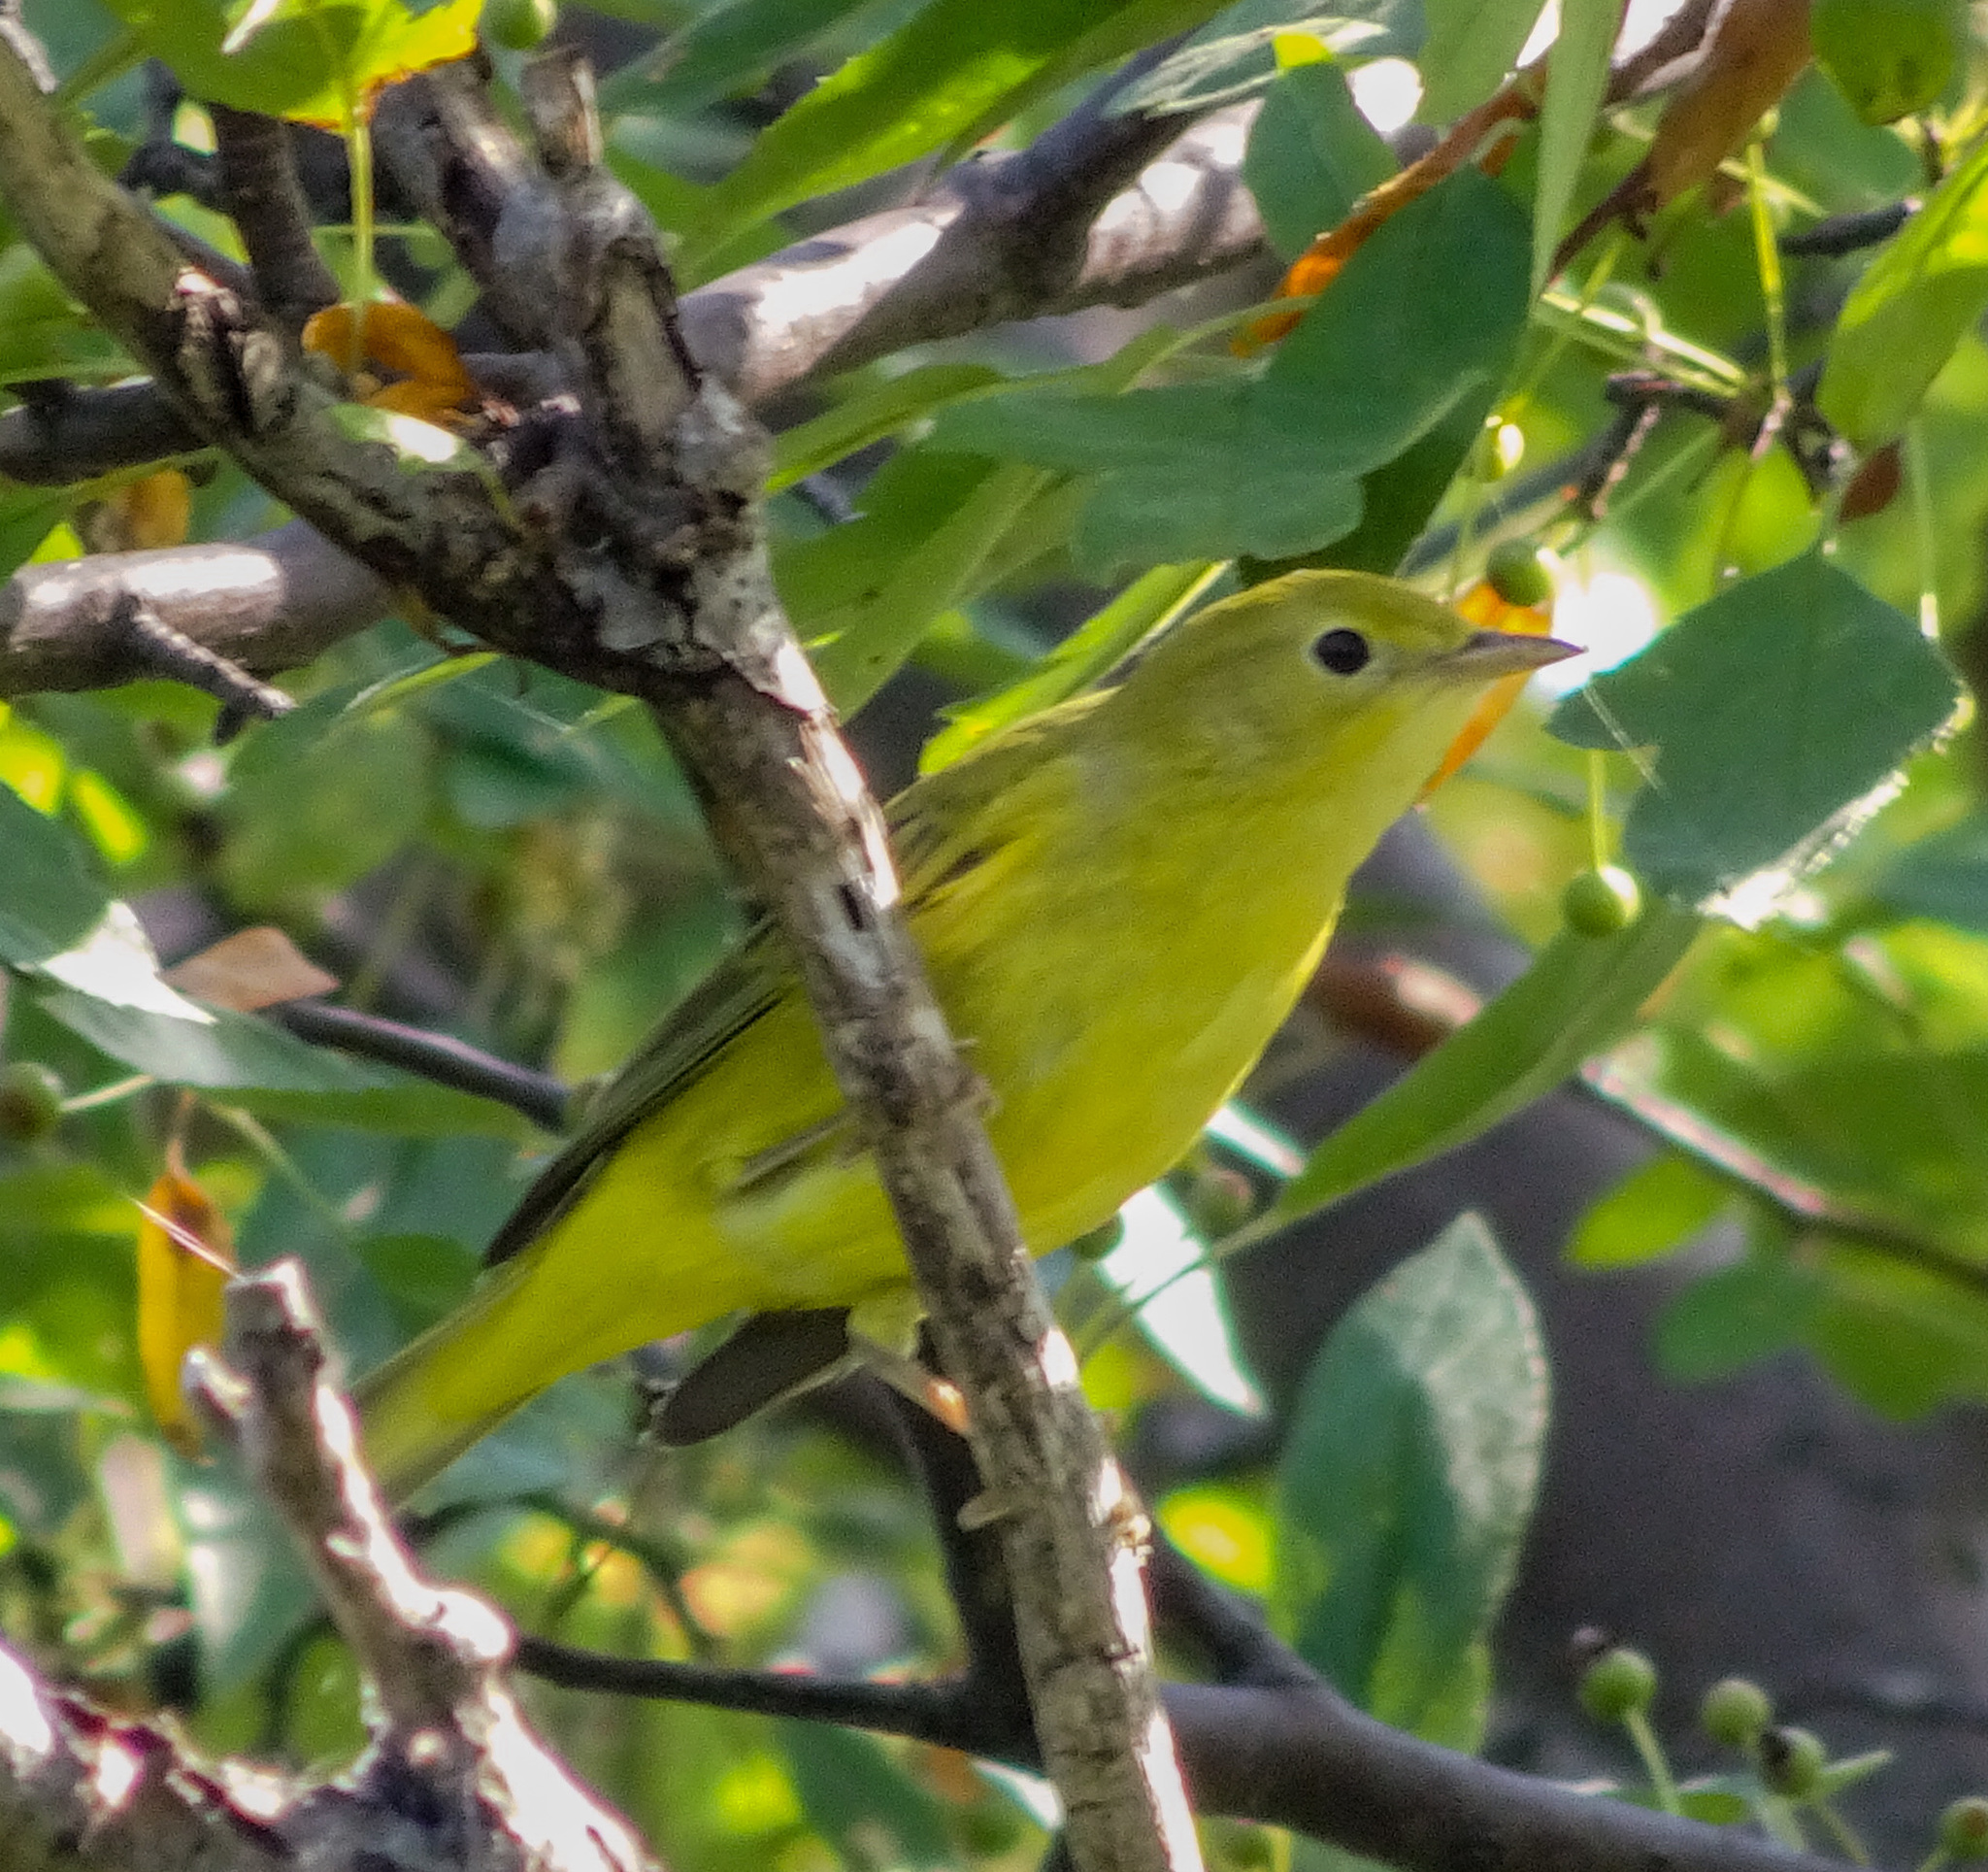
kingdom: Animalia
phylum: Chordata
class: Aves
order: Passeriformes
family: Parulidae
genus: Setophaga
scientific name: Setophaga petechia
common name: Yellow warbler
